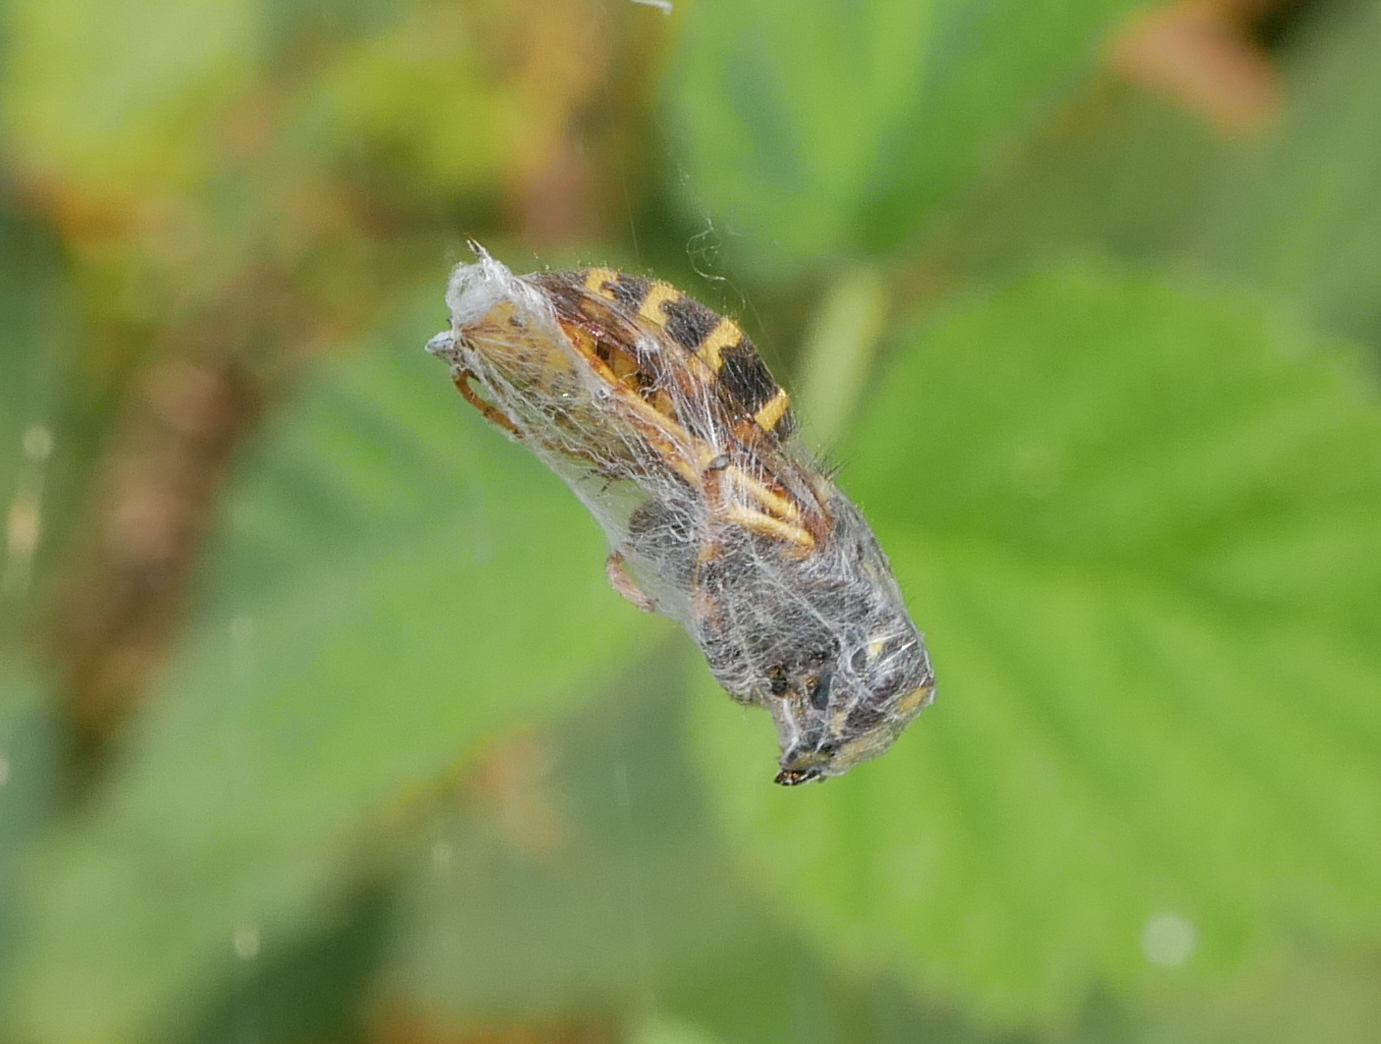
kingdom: Animalia
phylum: Arthropoda
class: Arachnida
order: Araneae
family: Araneidae
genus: Araneus
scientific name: Araneus diadematus
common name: Cross orbweaver
